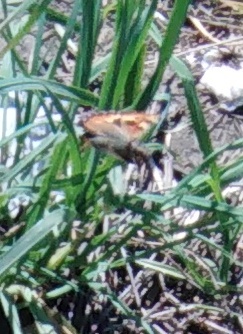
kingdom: Animalia
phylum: Arthropoda
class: Insecta
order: Lepidoptera
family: Nymphalidae
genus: Aglais
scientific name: Aglais urticae
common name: Small tortoiseshell
